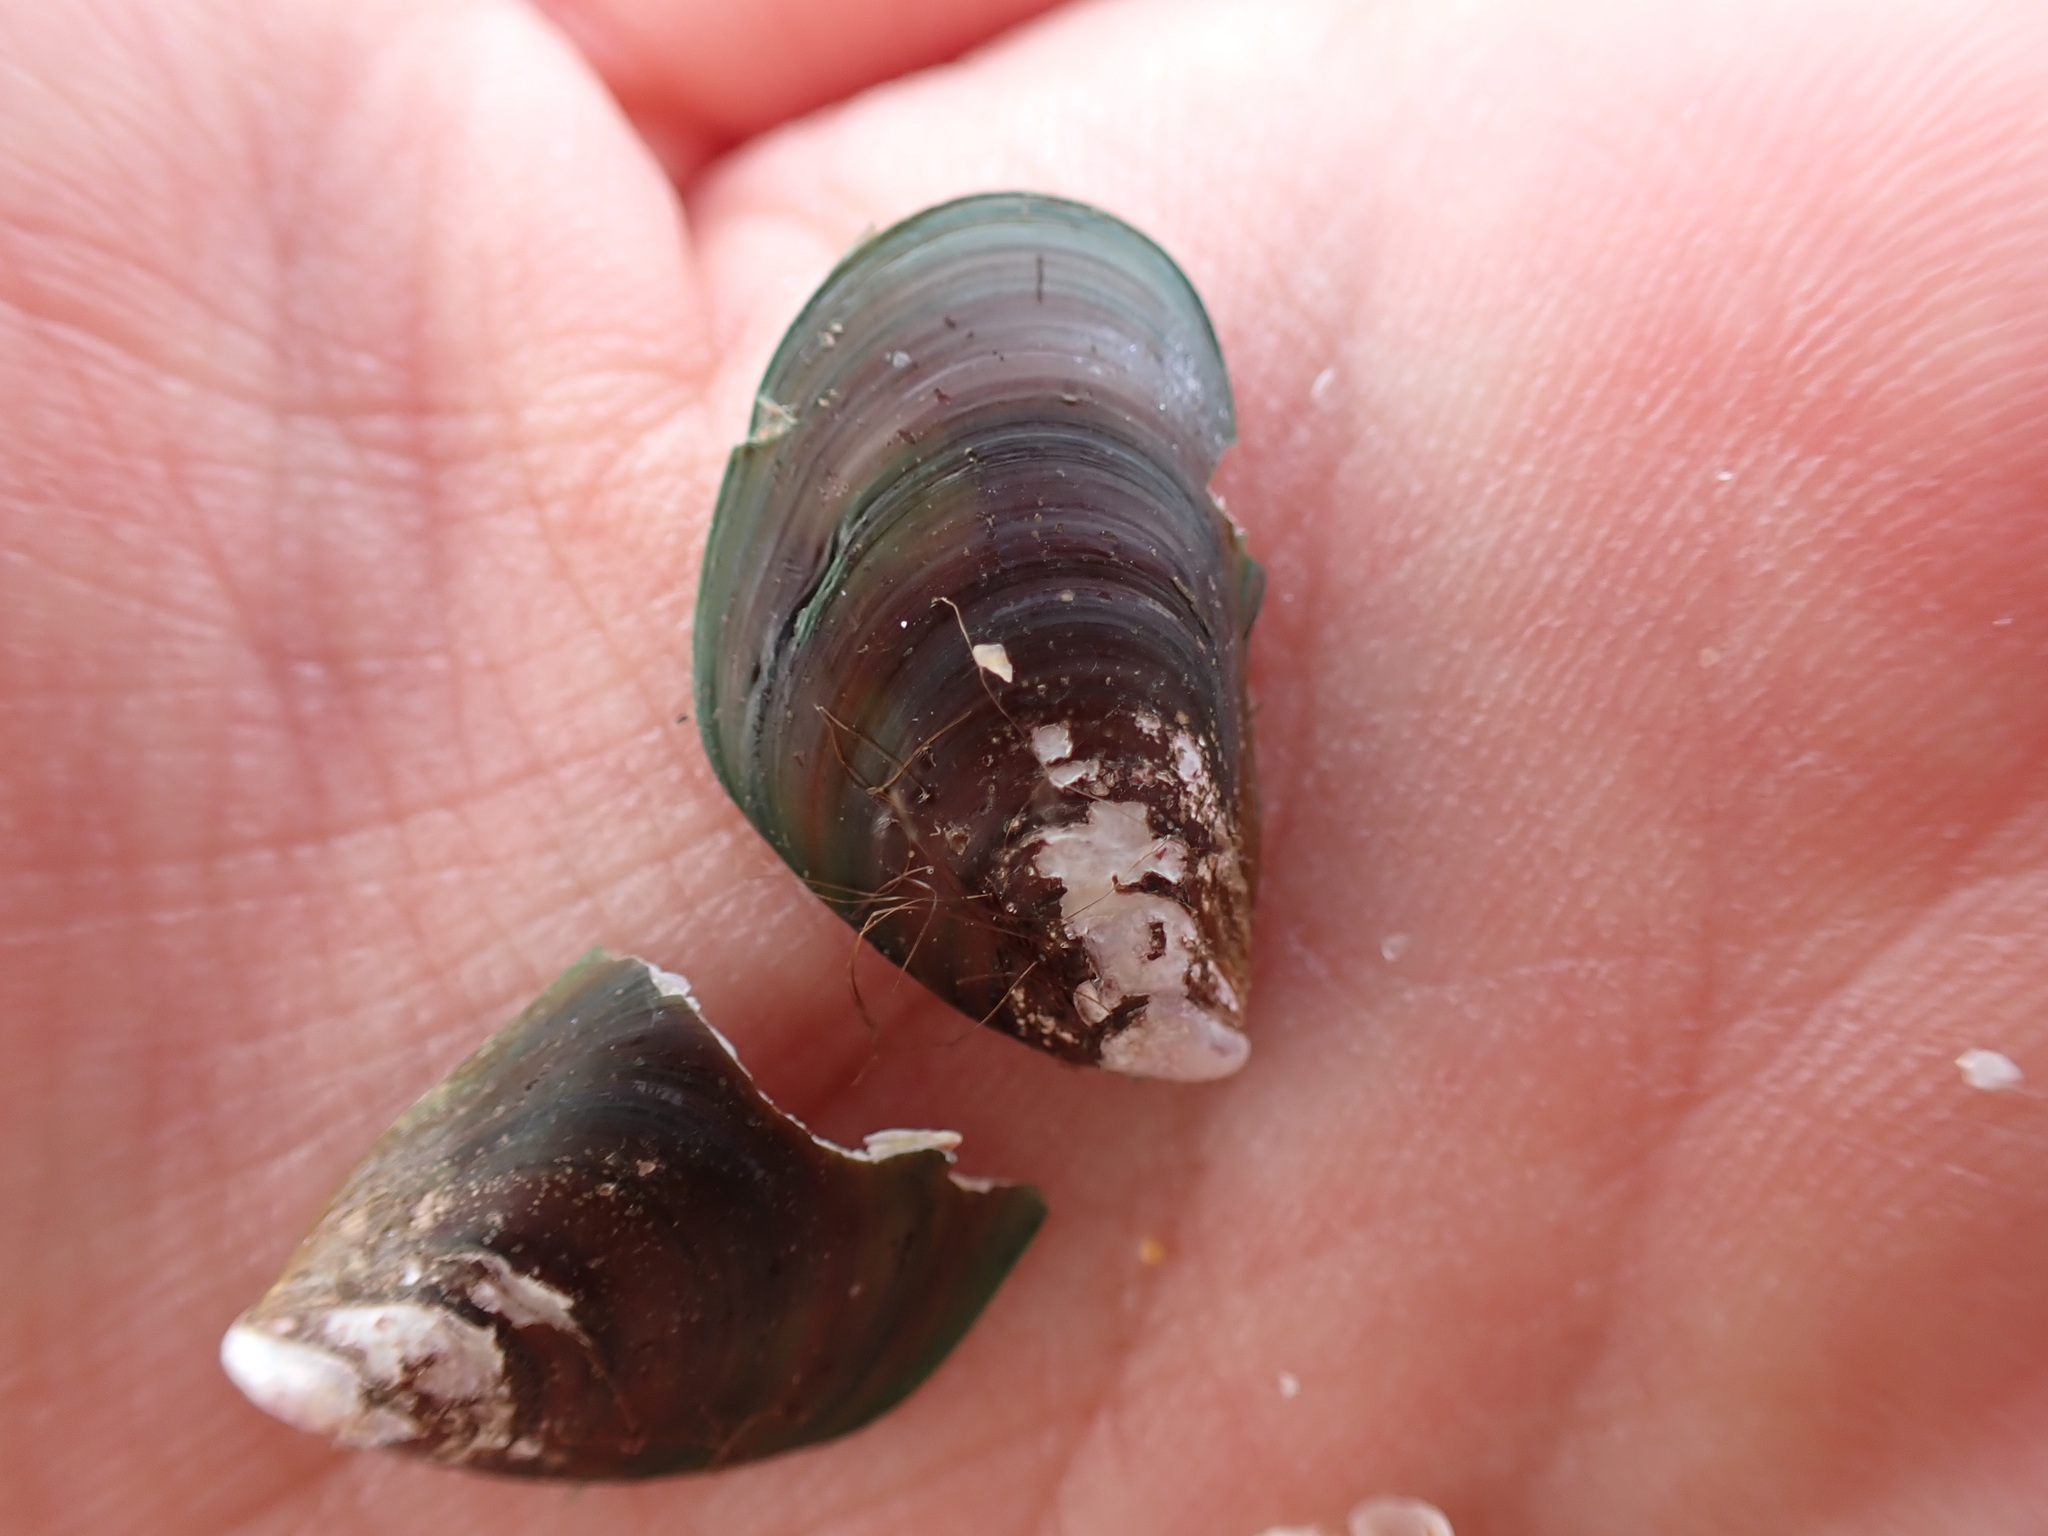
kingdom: Animalia
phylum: Mollusca
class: Bivalvia
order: Mytilida
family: Mytilidae
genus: Perna
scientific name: Perna viridis
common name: Green mussel
